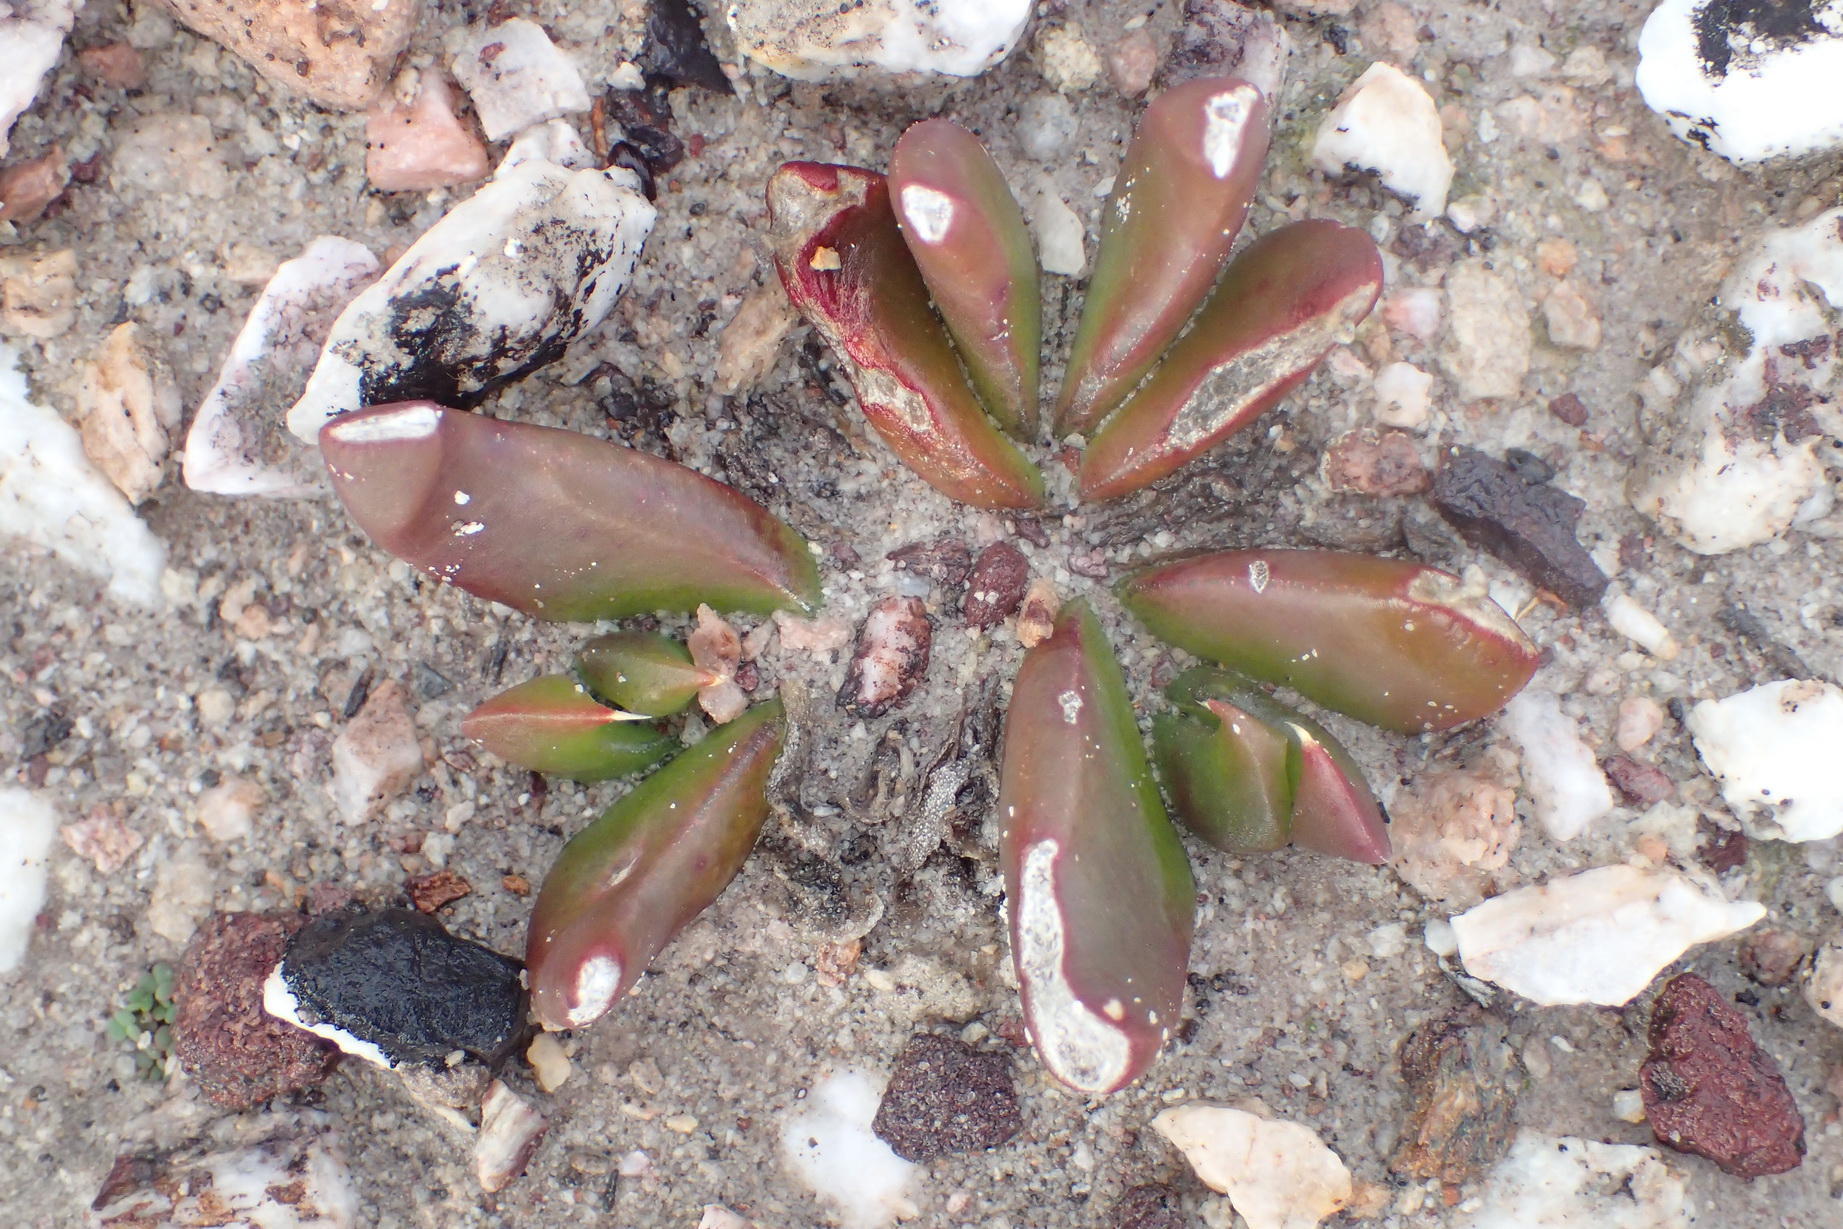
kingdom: Plantae
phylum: Tracheophyta
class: Magnoliopsida
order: Caryophyllales
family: Aizoaceae
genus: Glottiphyllum
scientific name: Glottiphyllum depressum
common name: Fig-marigold
